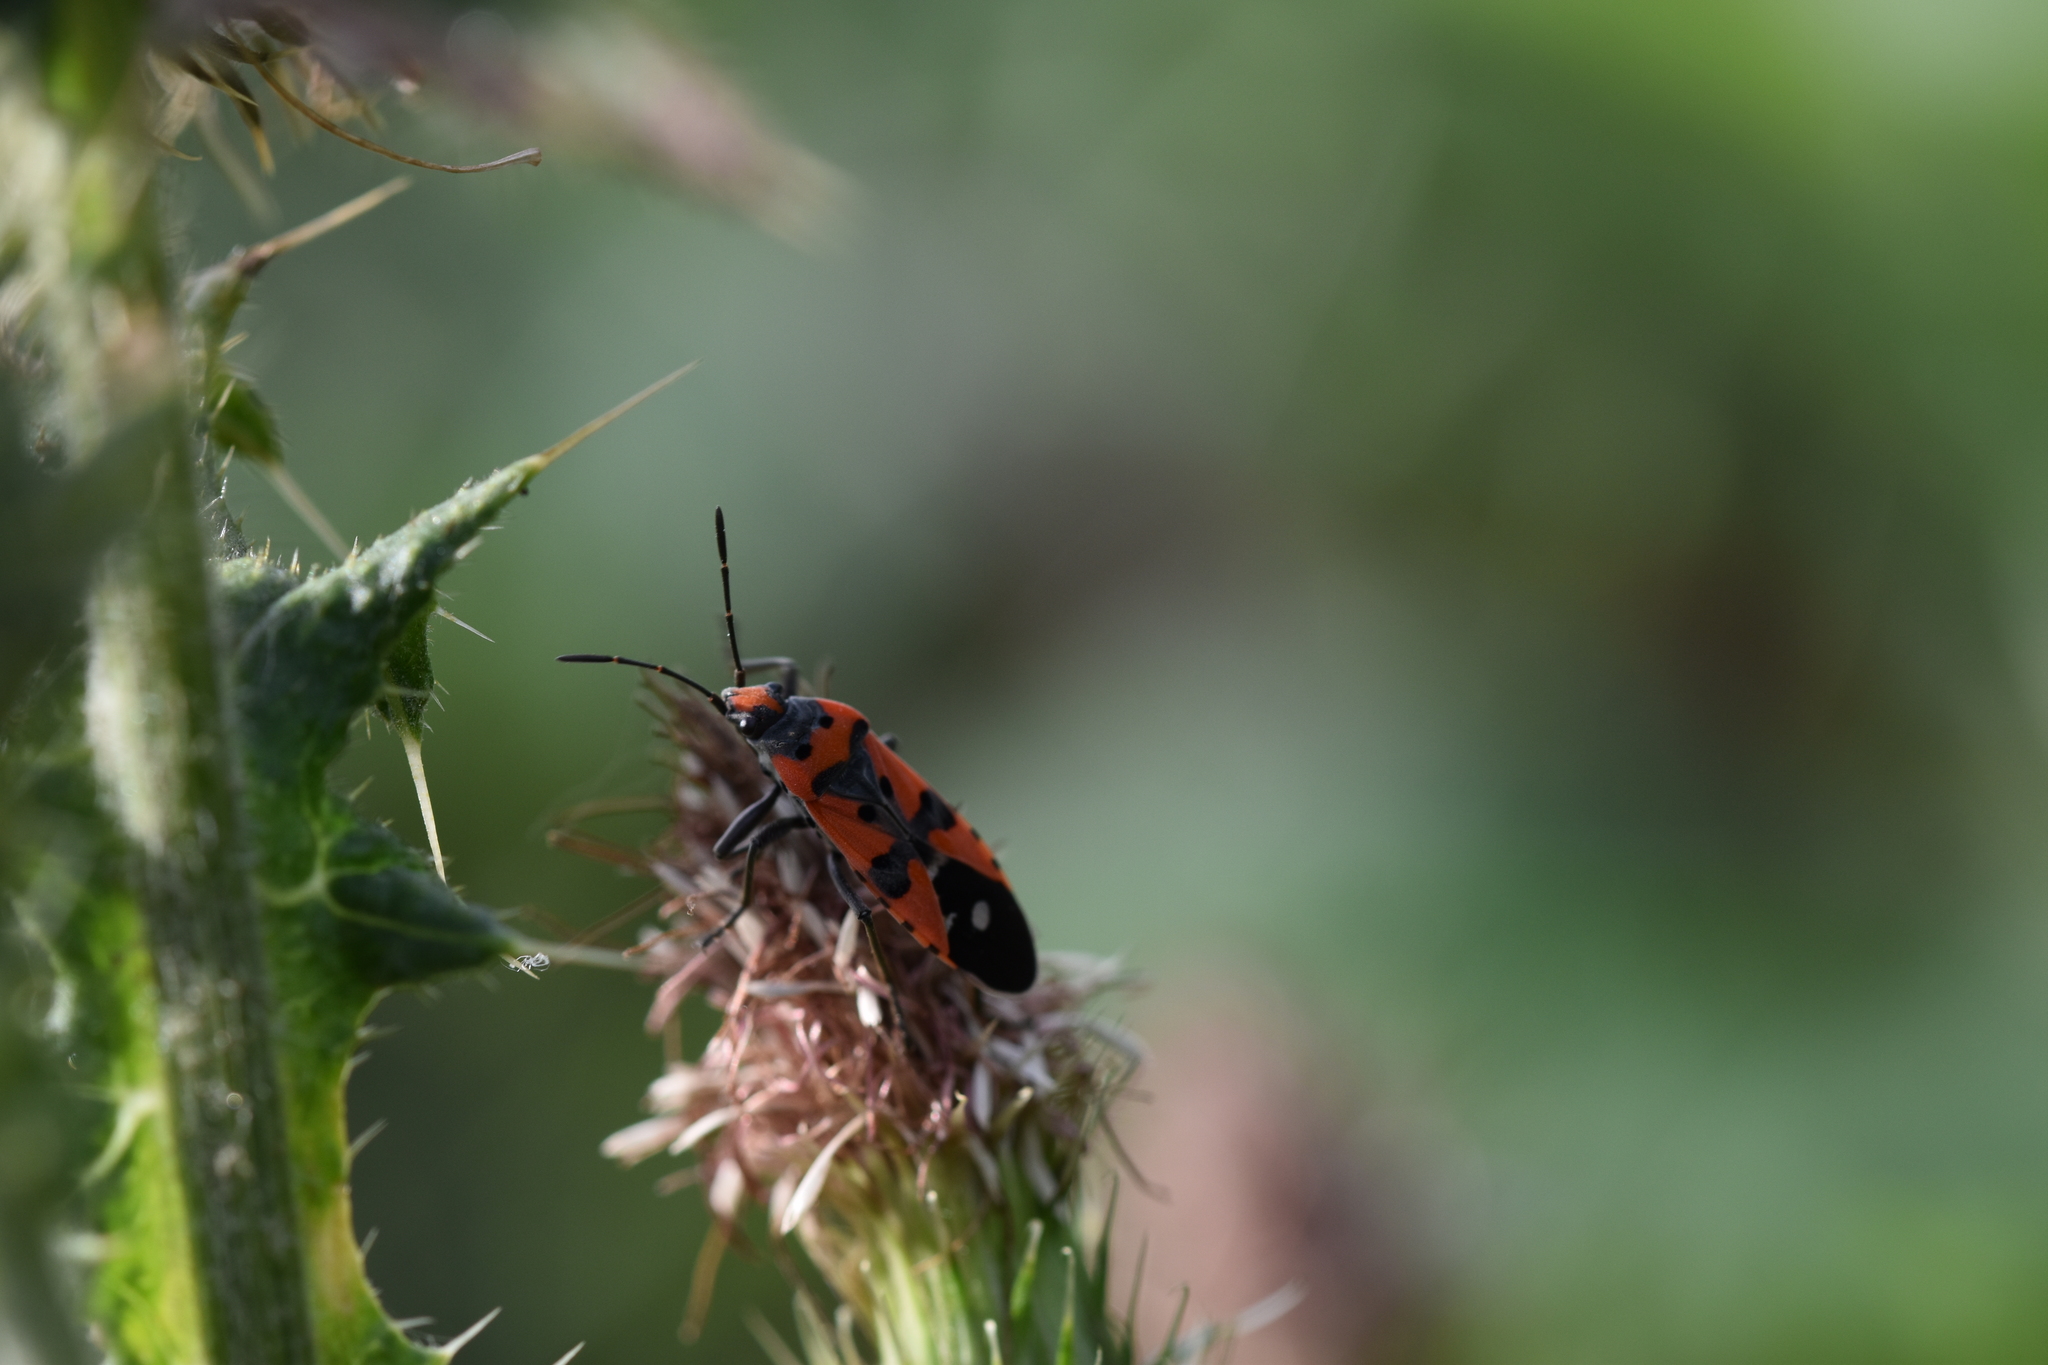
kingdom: Animalia
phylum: Arthropoda
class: Insecta
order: Hemiptera
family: Lygaeidae
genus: Lygaeus
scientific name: Lygaeus equestris
